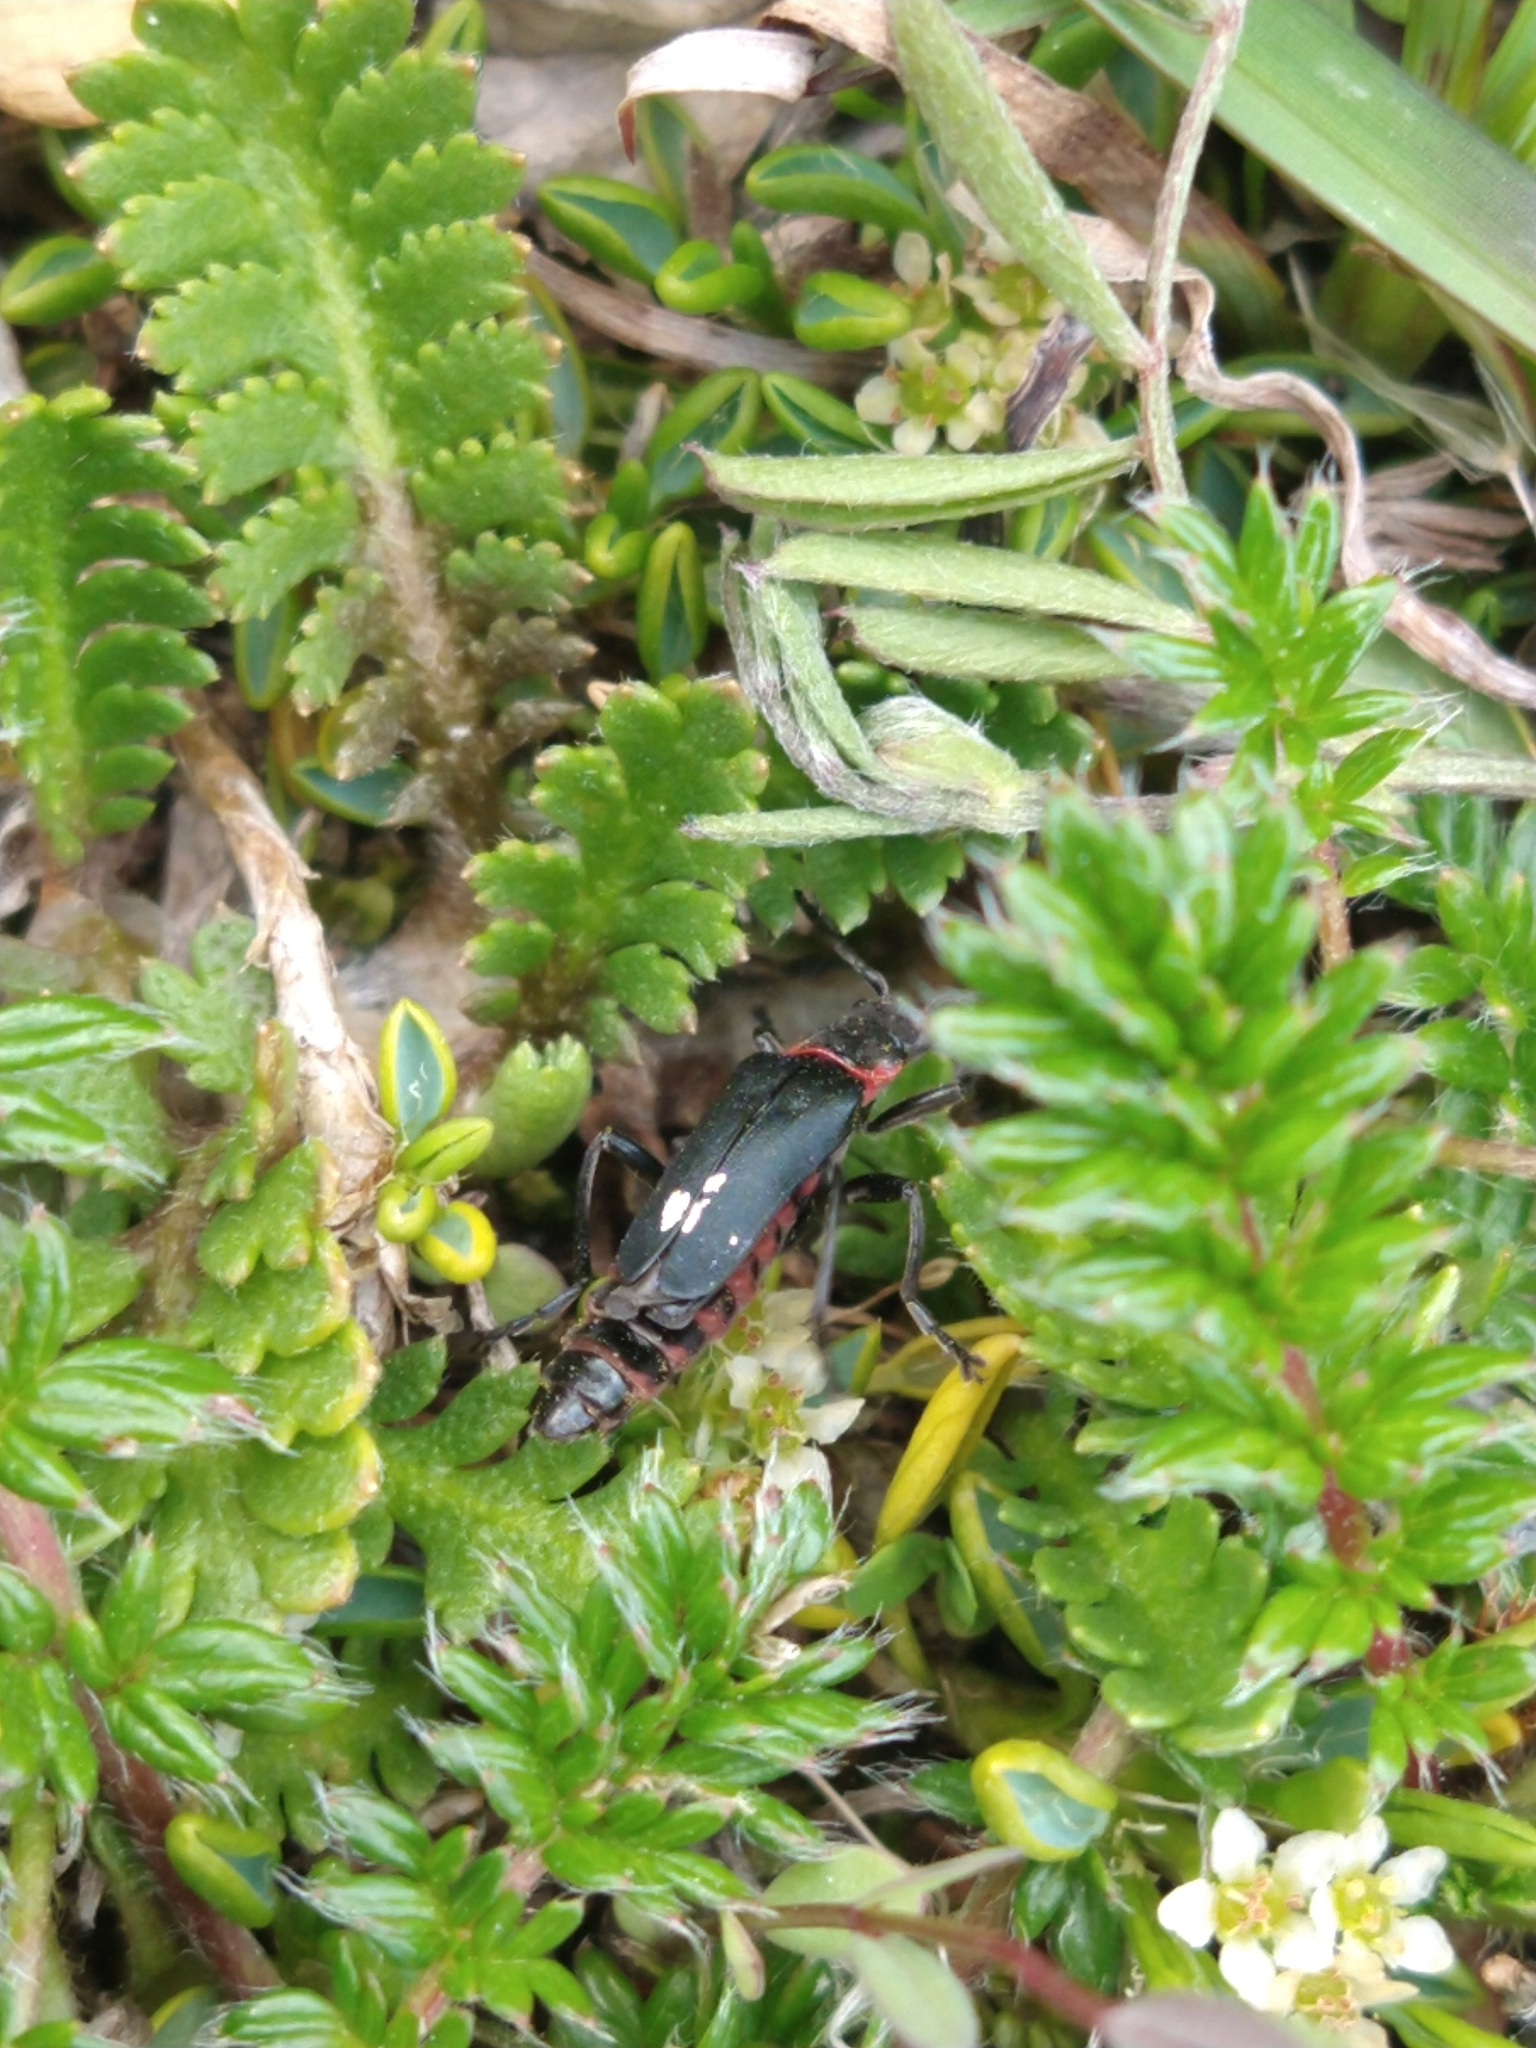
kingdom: Animalia
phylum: Arthropoda
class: Insecta
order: Coleoptera
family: Cantharidae
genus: Chauliognathus
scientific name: Chauliognathus
